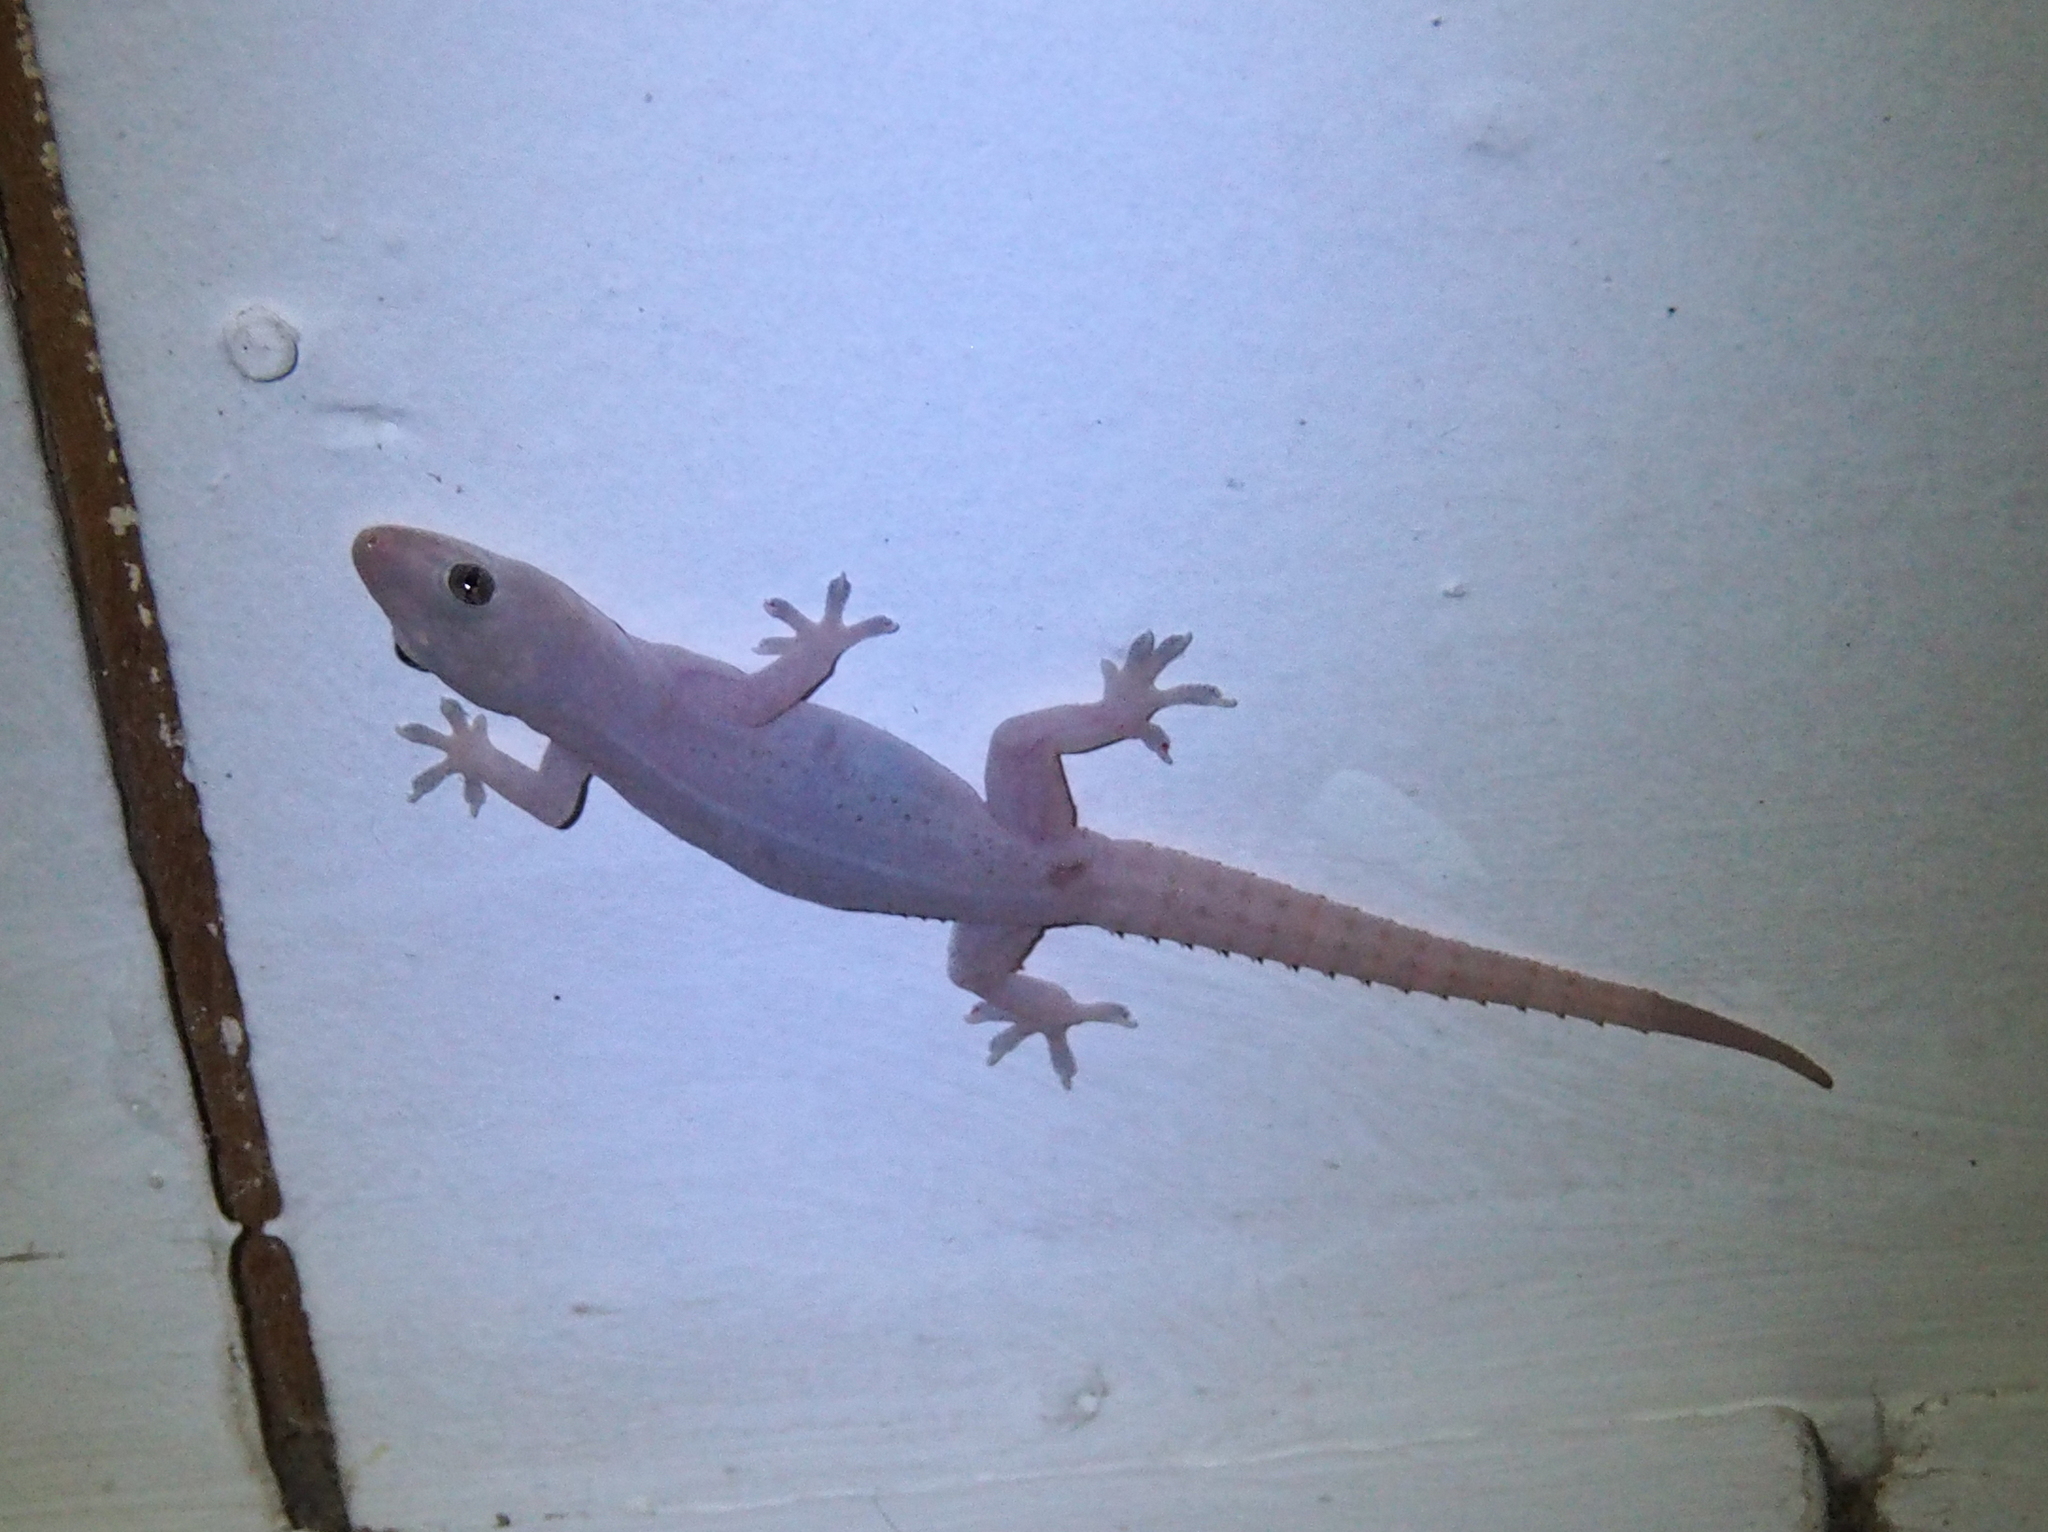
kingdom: Animalia
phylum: Chordata
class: Squamata
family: Gekkonidae
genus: Hemidactylus
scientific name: Hemidactylus frenatus
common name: Common house gecko
